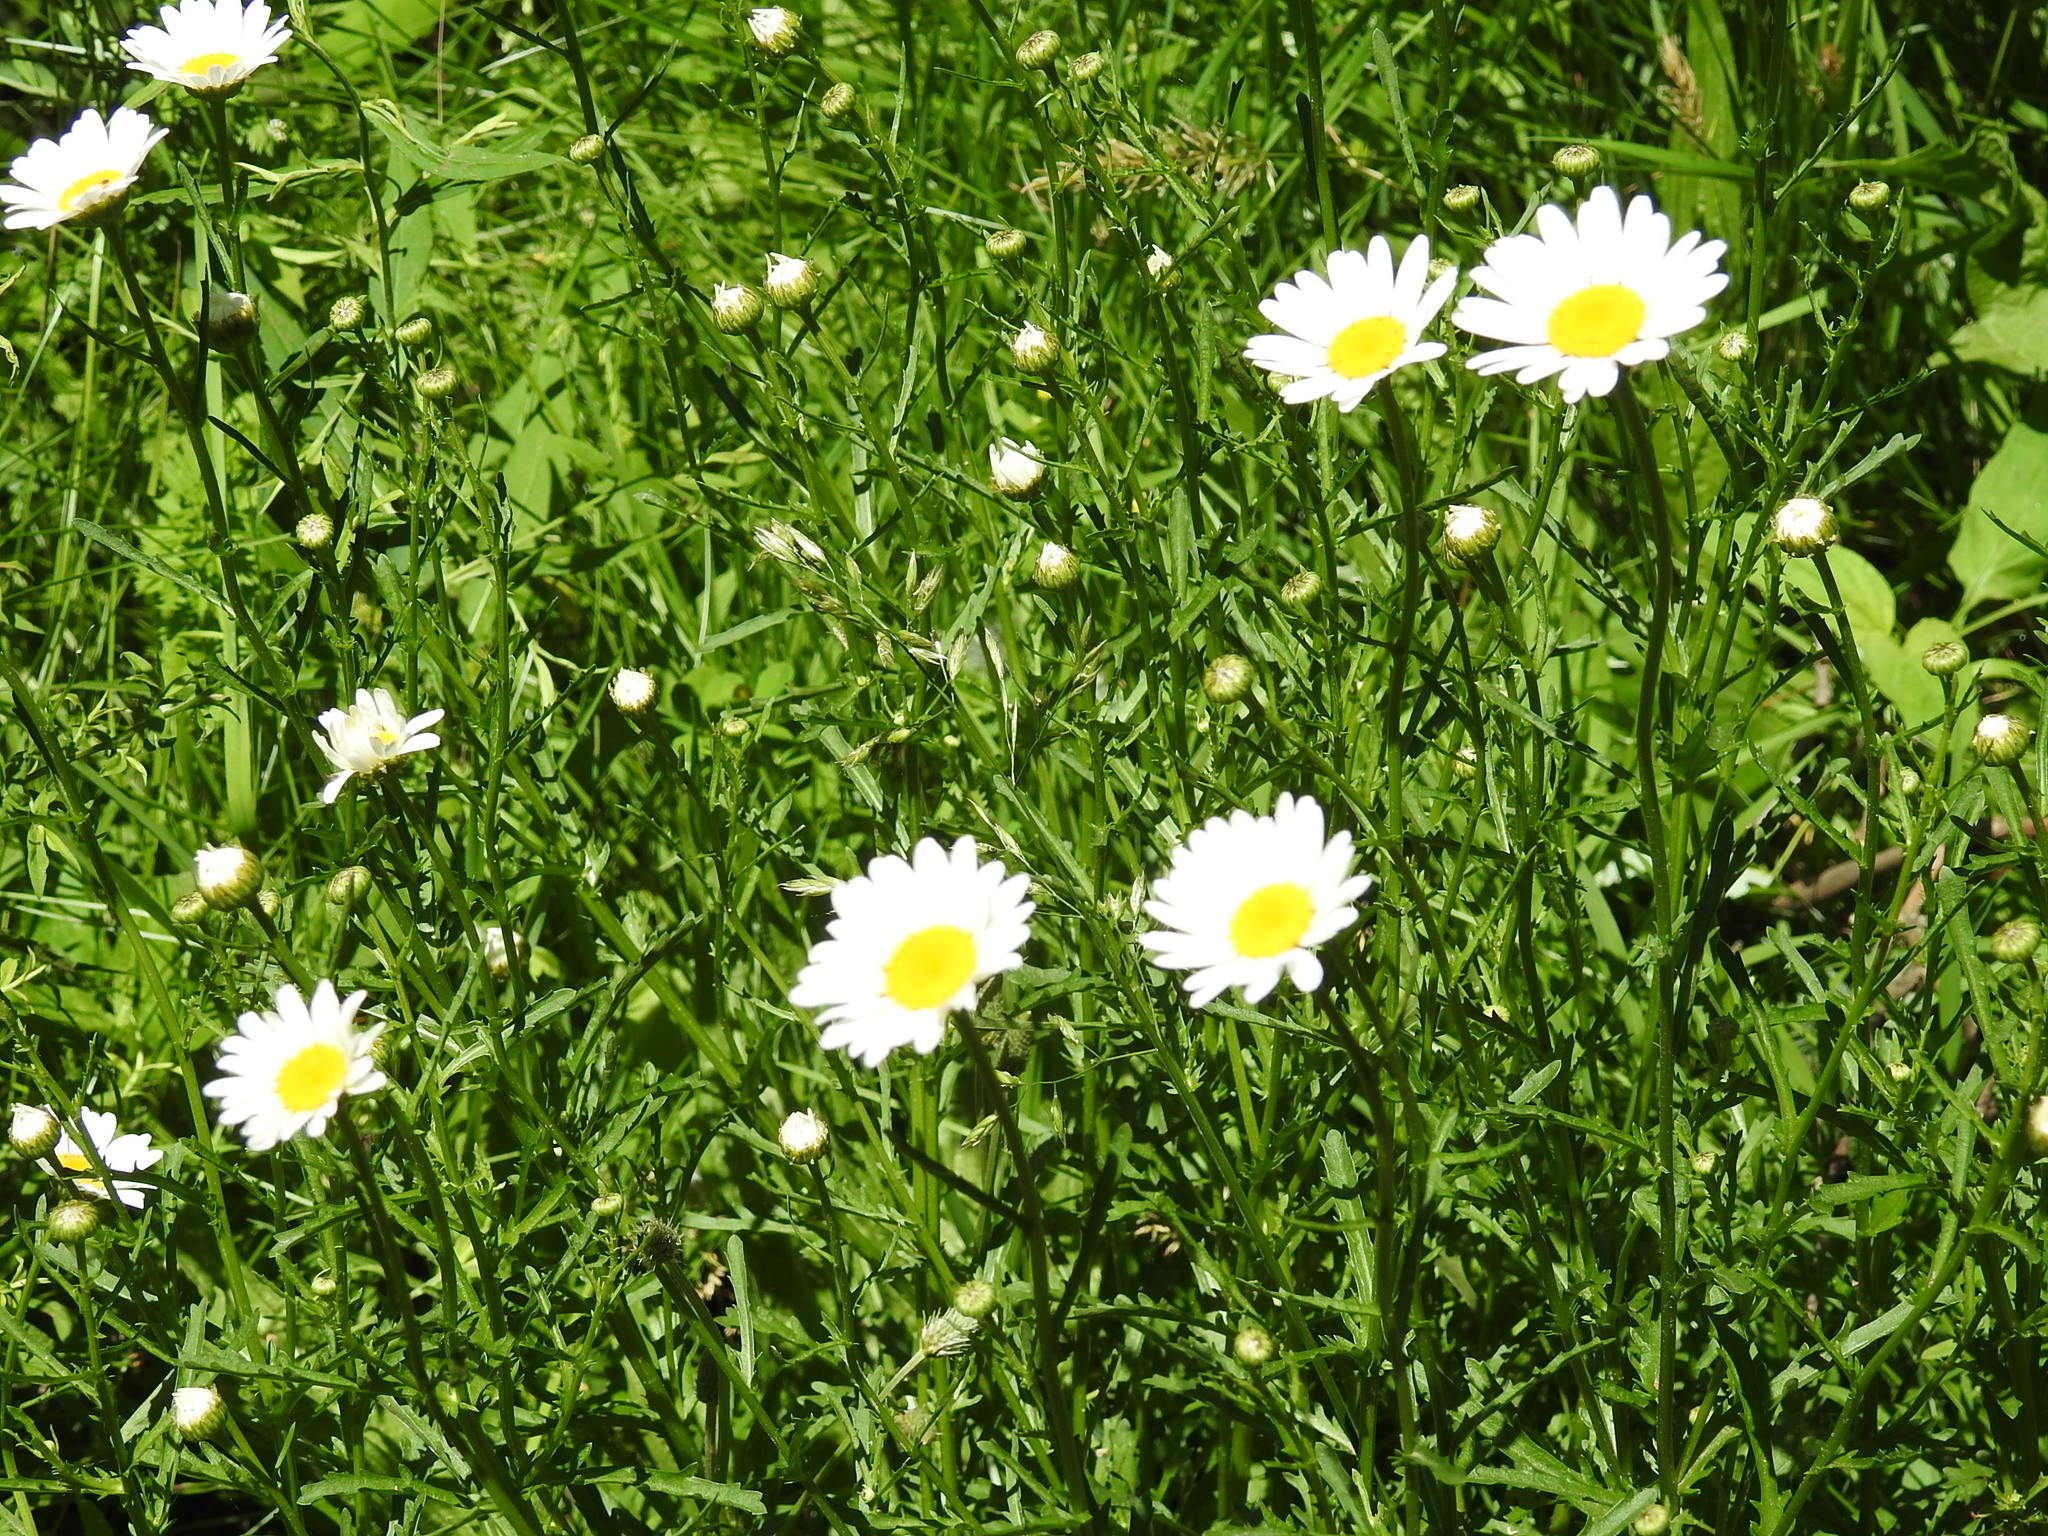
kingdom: Plantae
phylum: Tracheophyta
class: Magnoliopsida
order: Asterales
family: Asteraceae
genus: Leucanthemum
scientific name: Leucanthemum vulgare
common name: Oxeye daisy
